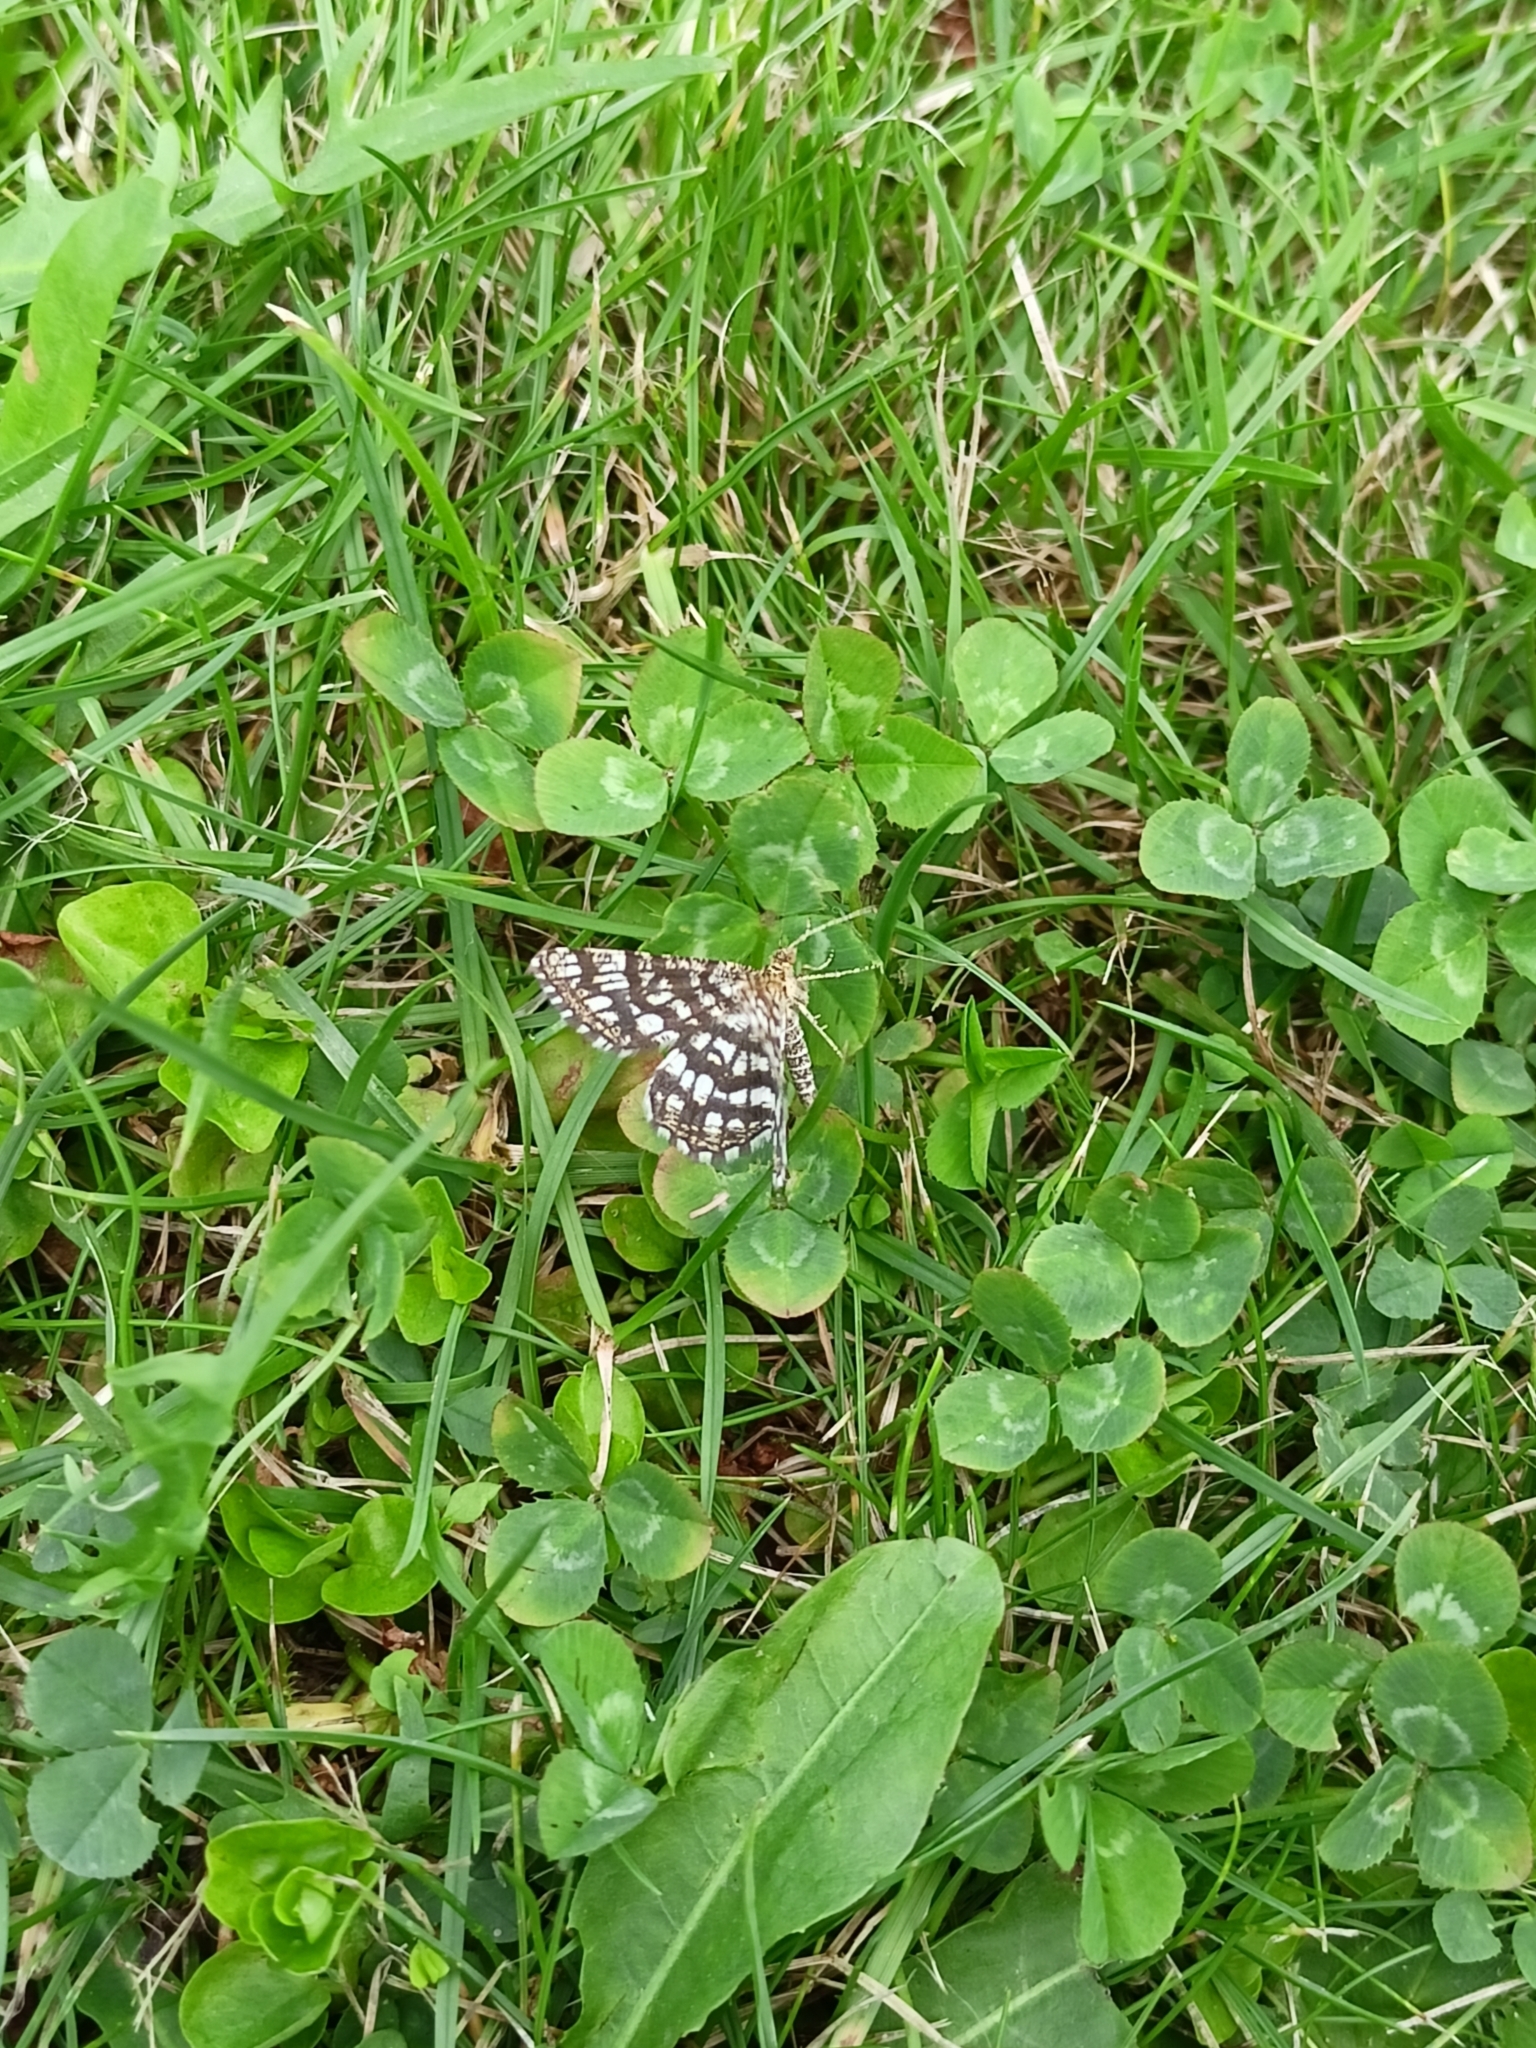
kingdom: Animalia
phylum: Arthropoda
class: Insecta
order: Lepidoptera
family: Geometridae
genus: Chiasmia
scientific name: Chiasmia clathrata
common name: Latticed heath
